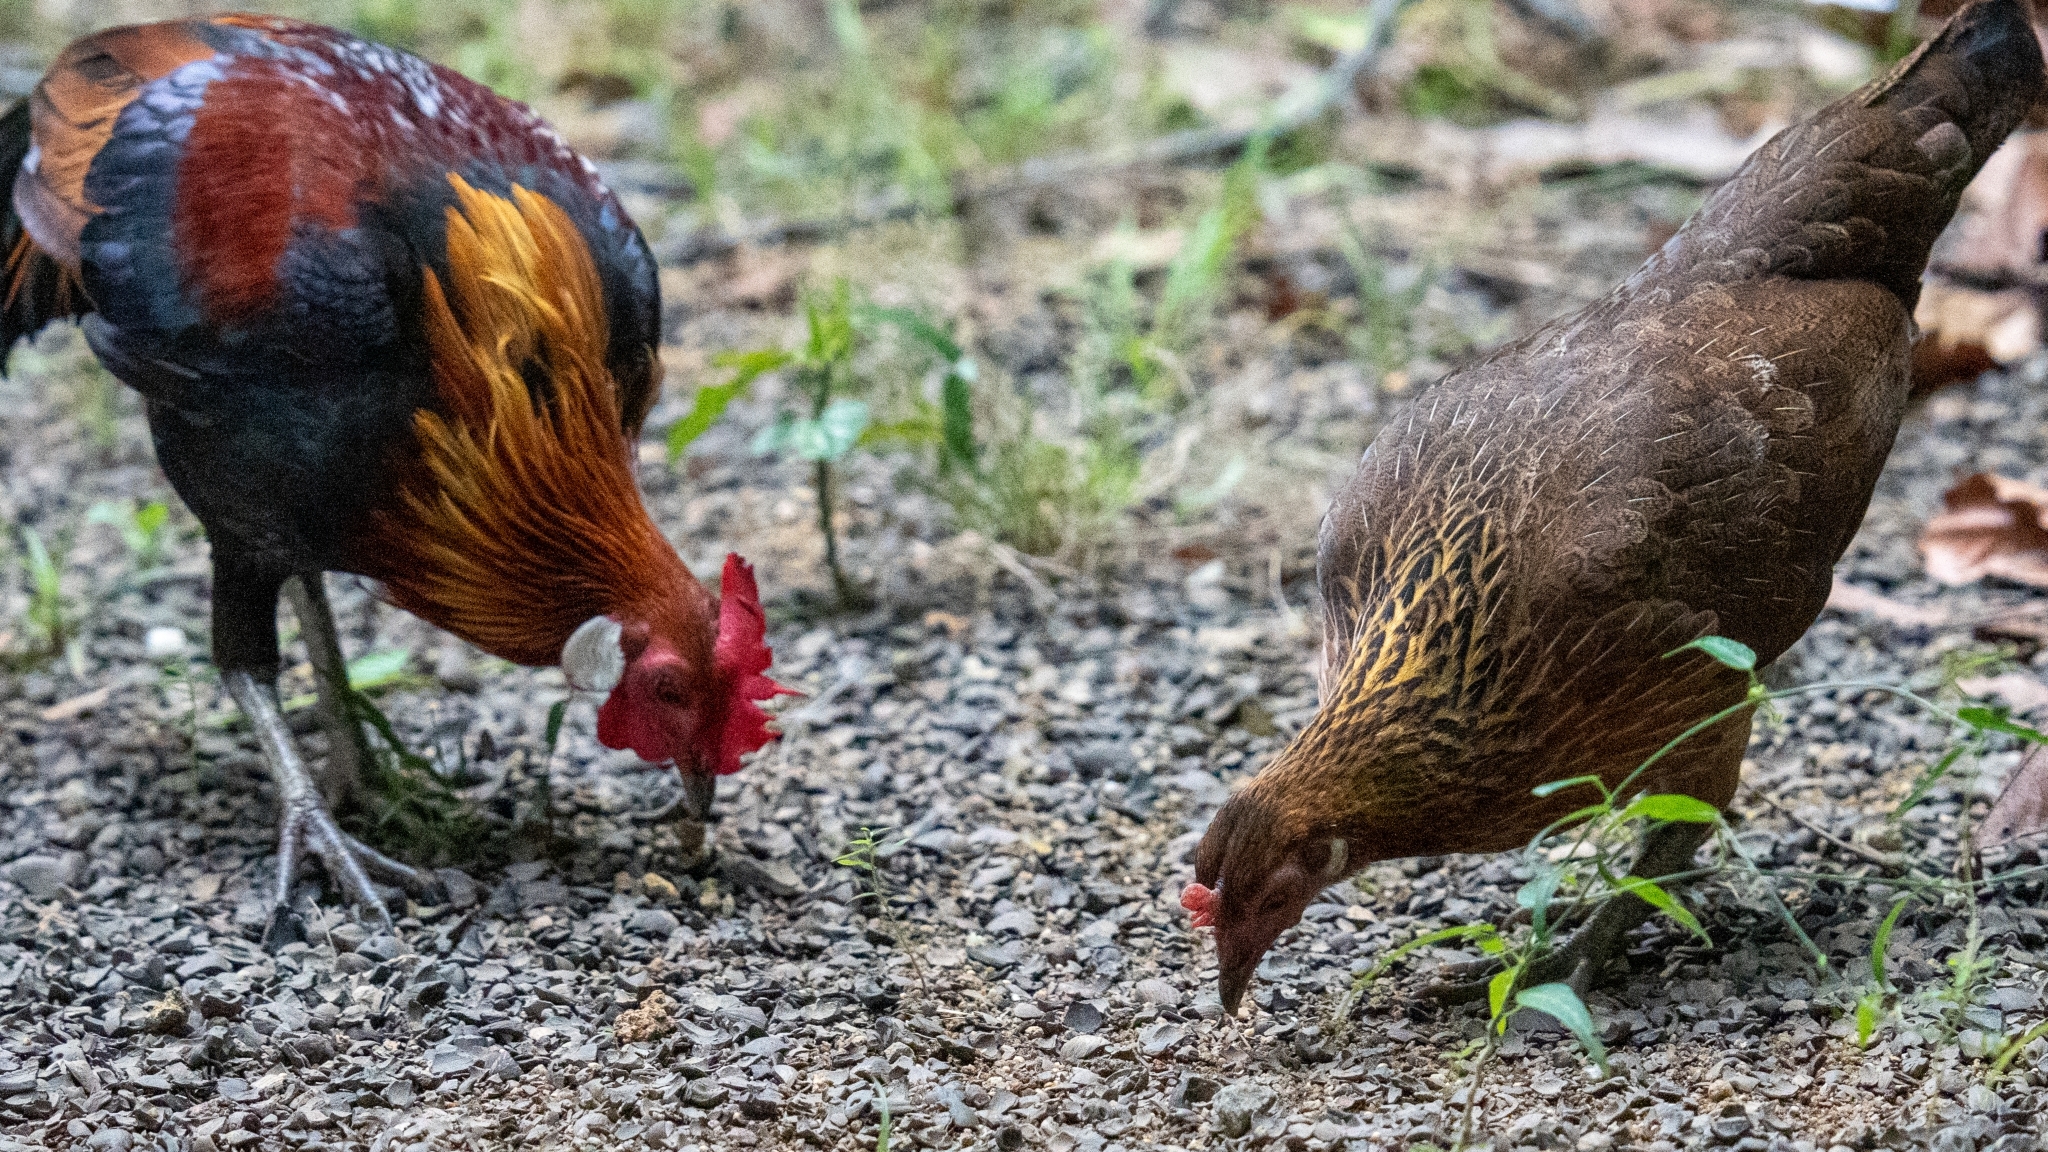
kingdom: Animalia
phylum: Chordata
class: Aves
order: Galliformes
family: Phasianidae
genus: Gallus
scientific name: Gallus gallus
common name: Red junglefowl
